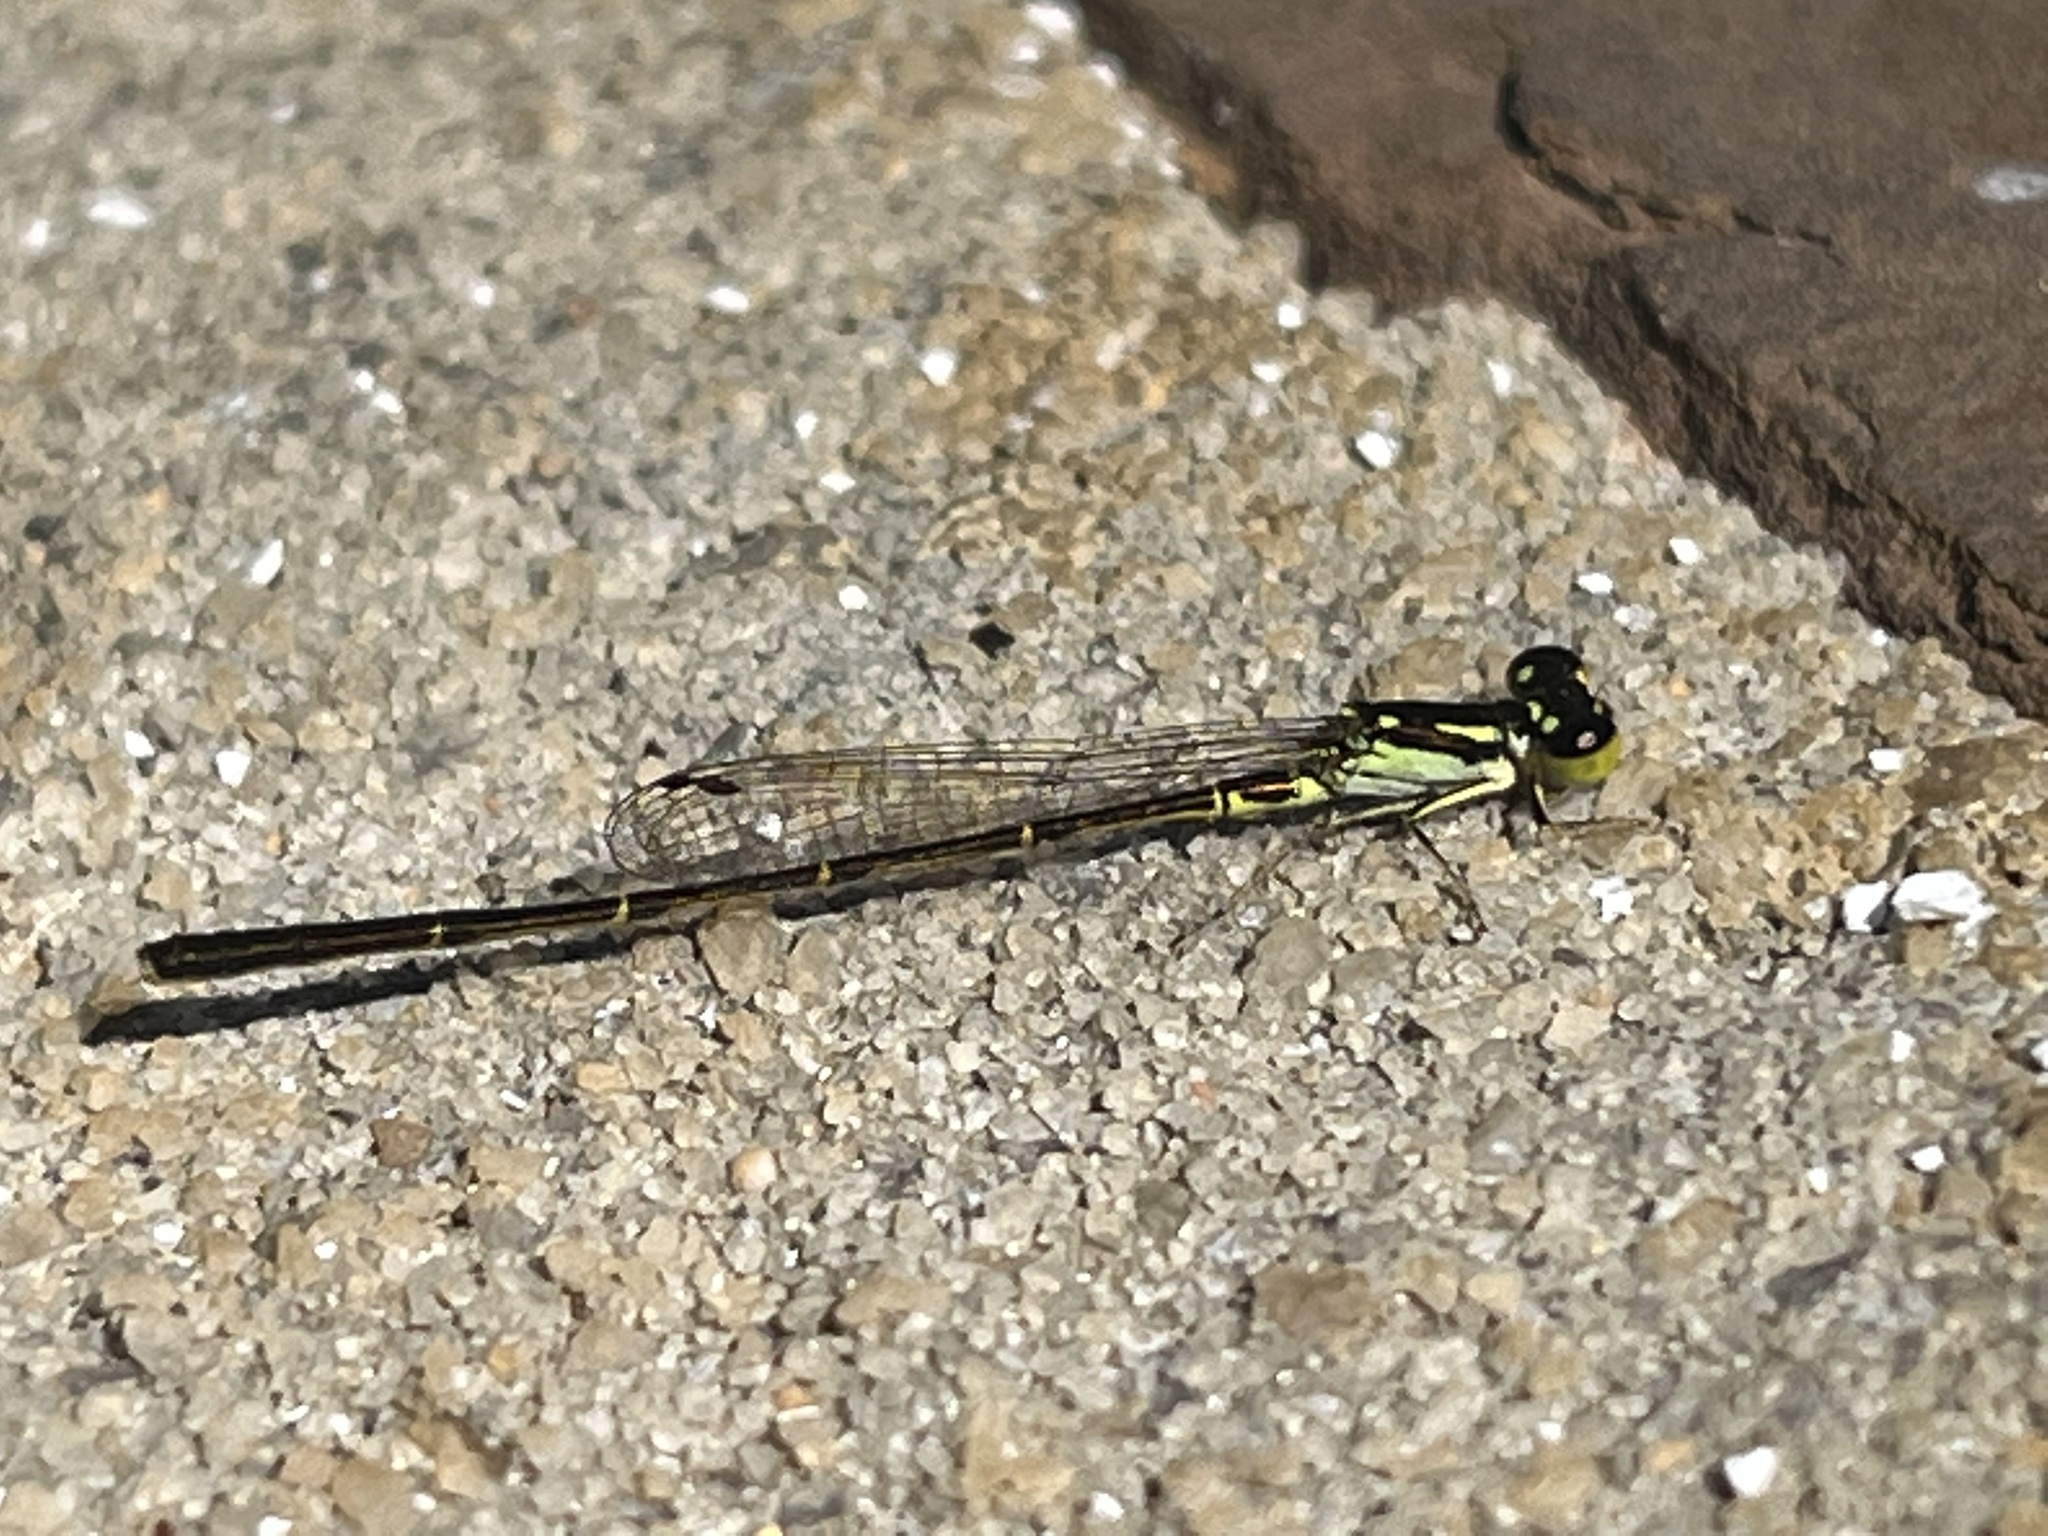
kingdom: Animalia
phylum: Arthropoda
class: Insecta
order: Odonata
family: Coenagrionidae
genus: Ischnura
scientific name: Ischnura posita
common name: Fragile forktail
